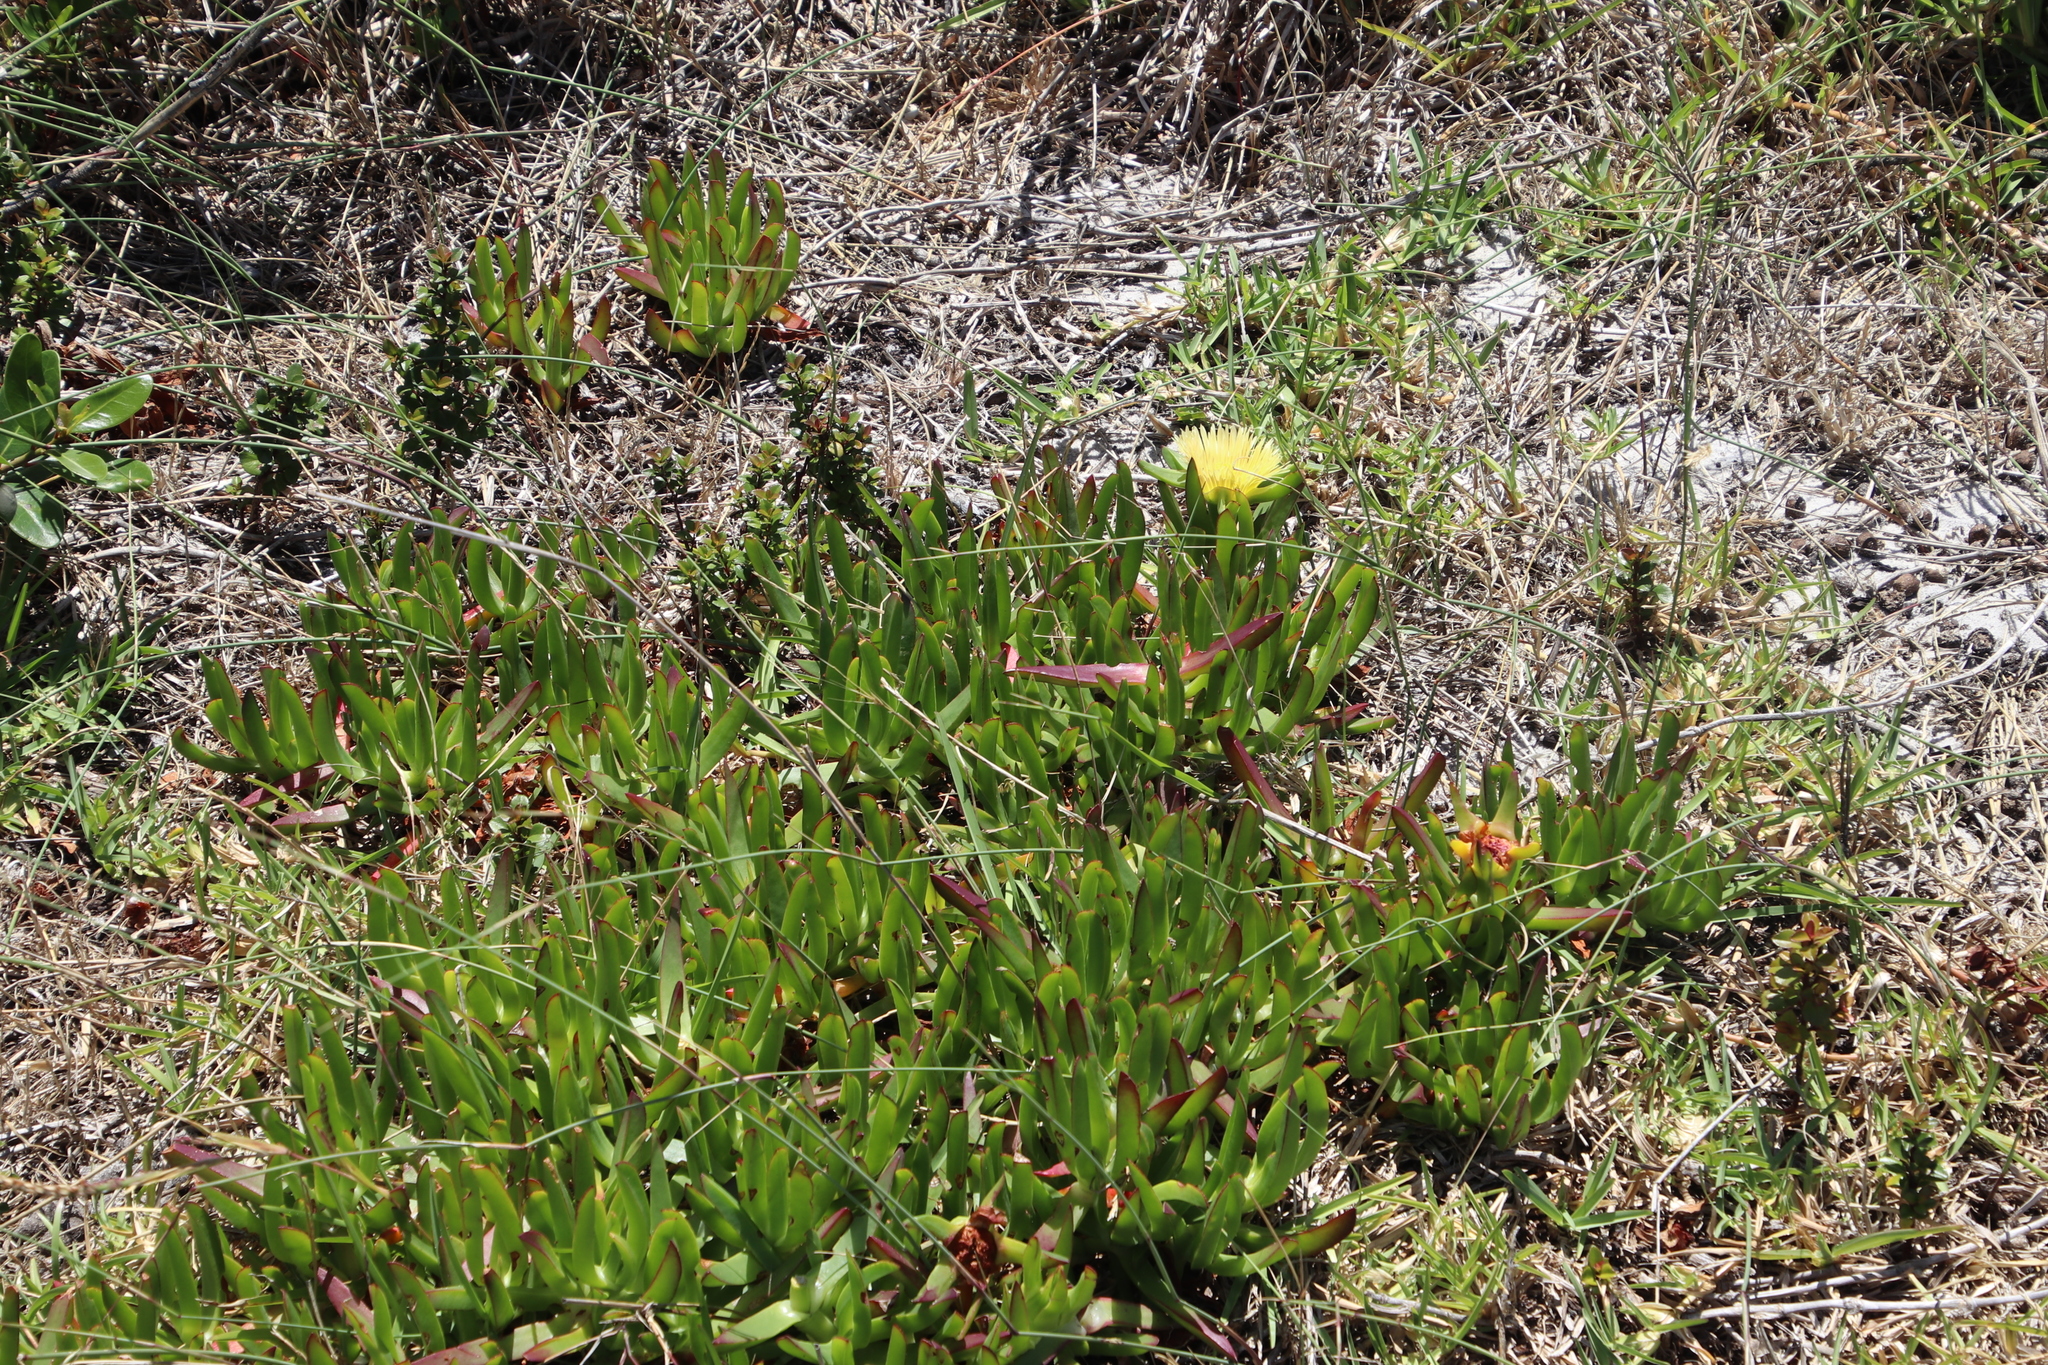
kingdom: Plantae
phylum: Tracheophyta
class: Magnoliopsida
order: Caryophyllales
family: Aizoaceae
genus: Carpobrotus
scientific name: Carpobrotus edulis
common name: Hottentot-fig
